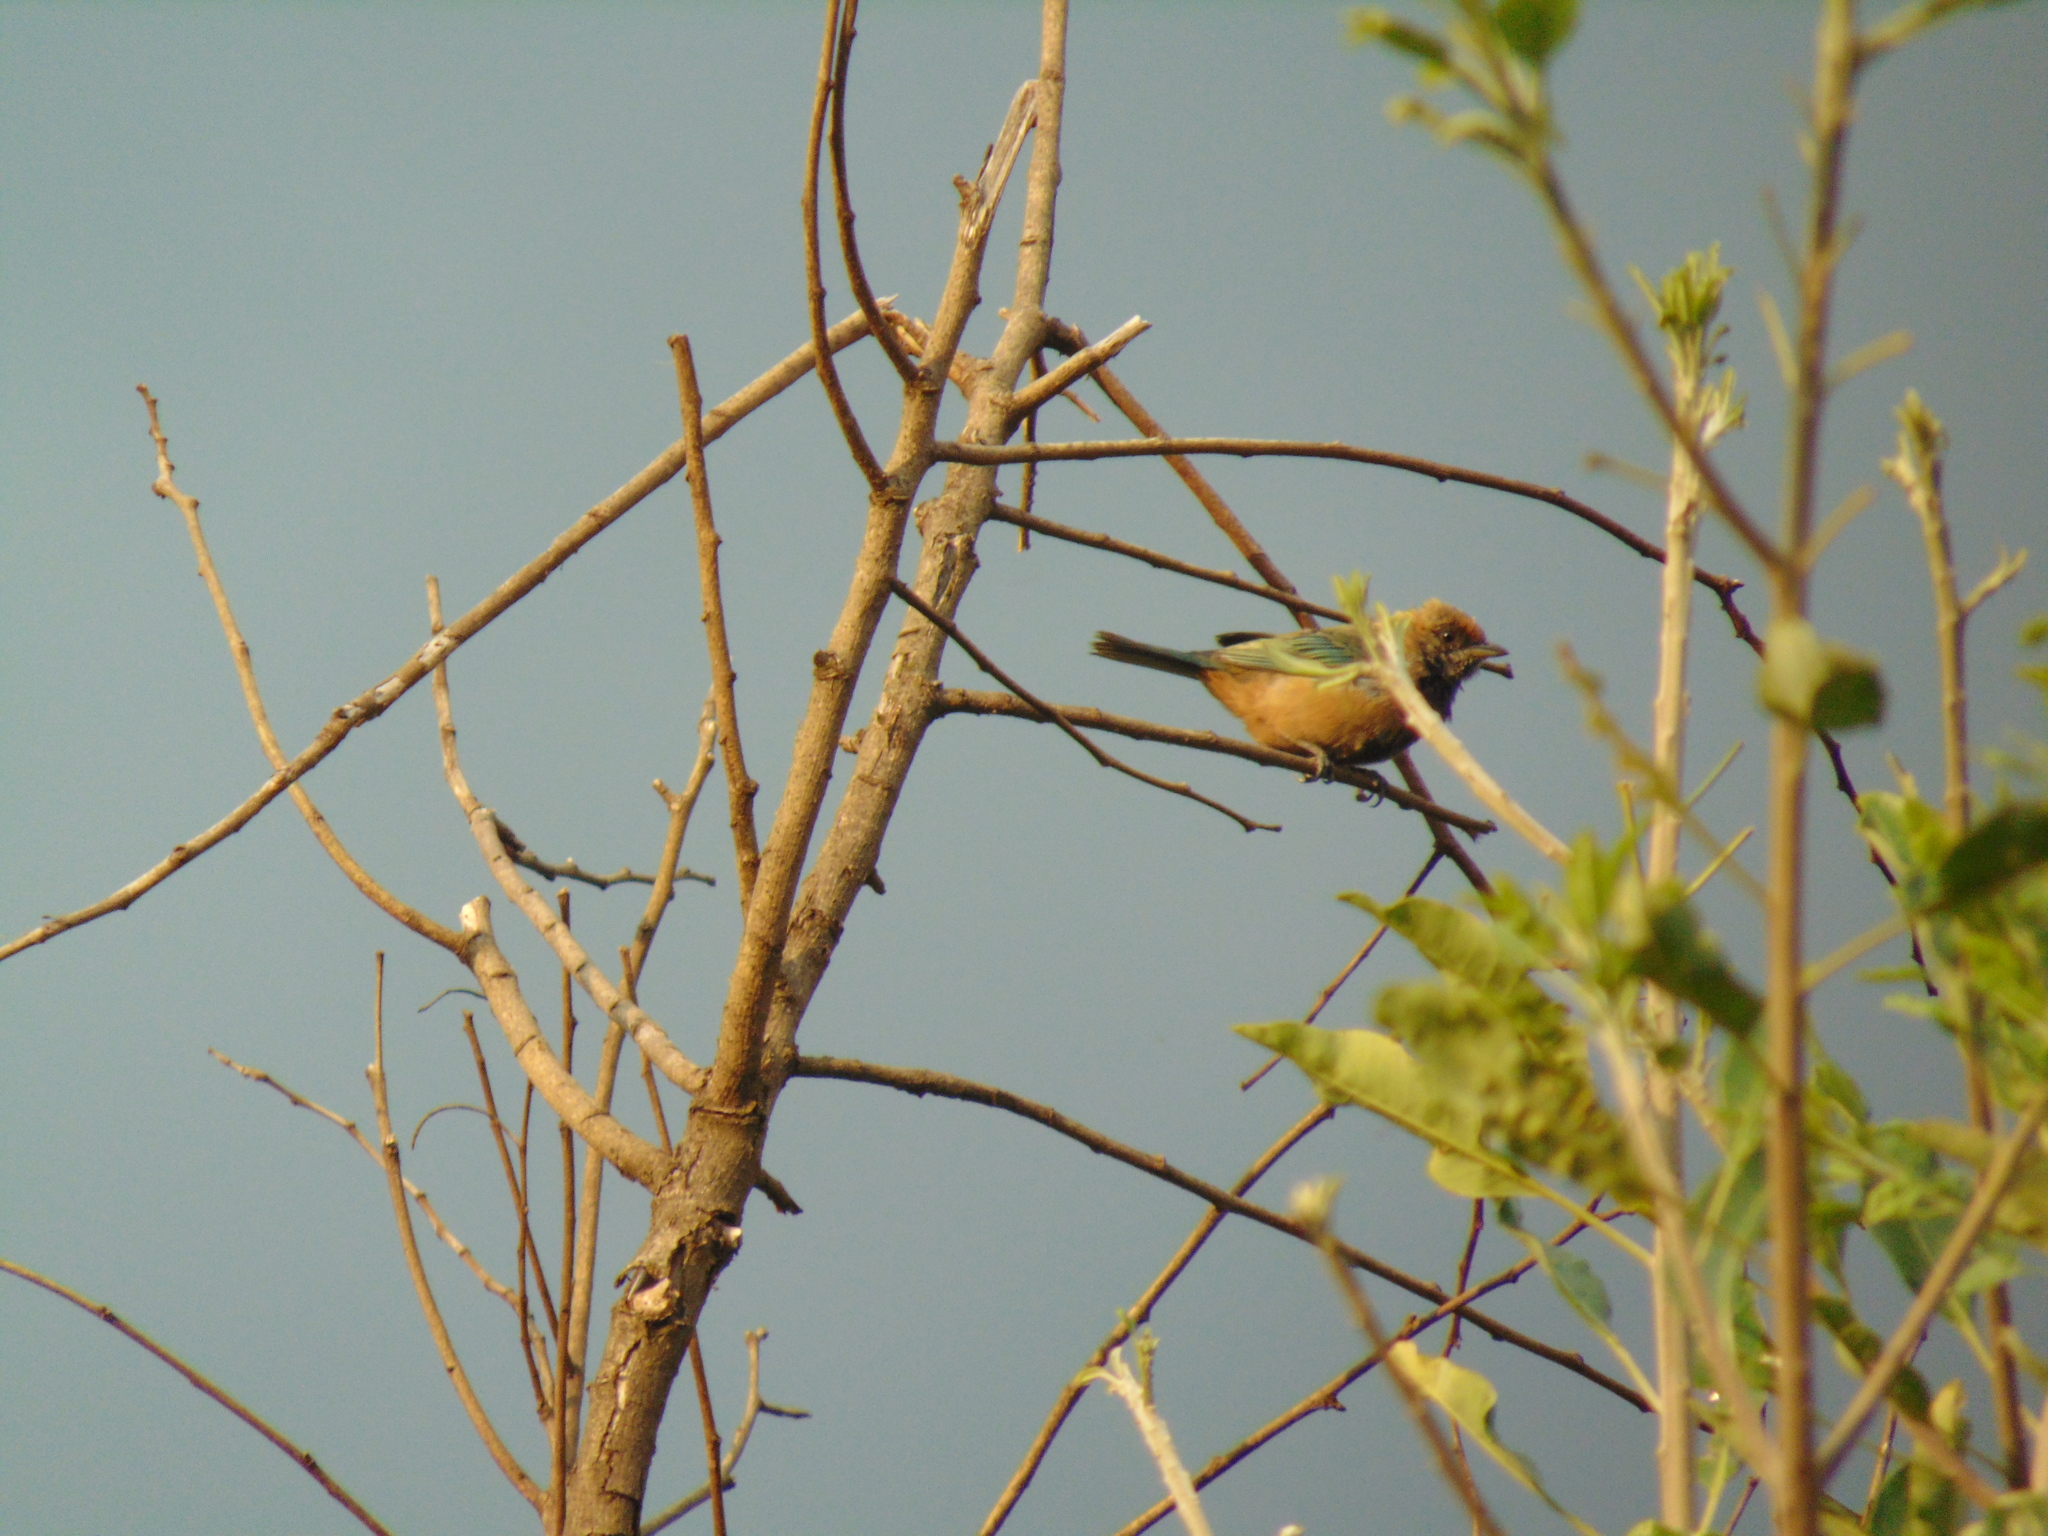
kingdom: Animalia
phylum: Chordata
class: Aves
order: Passeriformes
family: Thraupidae
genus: Stilpnia
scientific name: Stilpnia cayana
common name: Burnished-buff tanager
